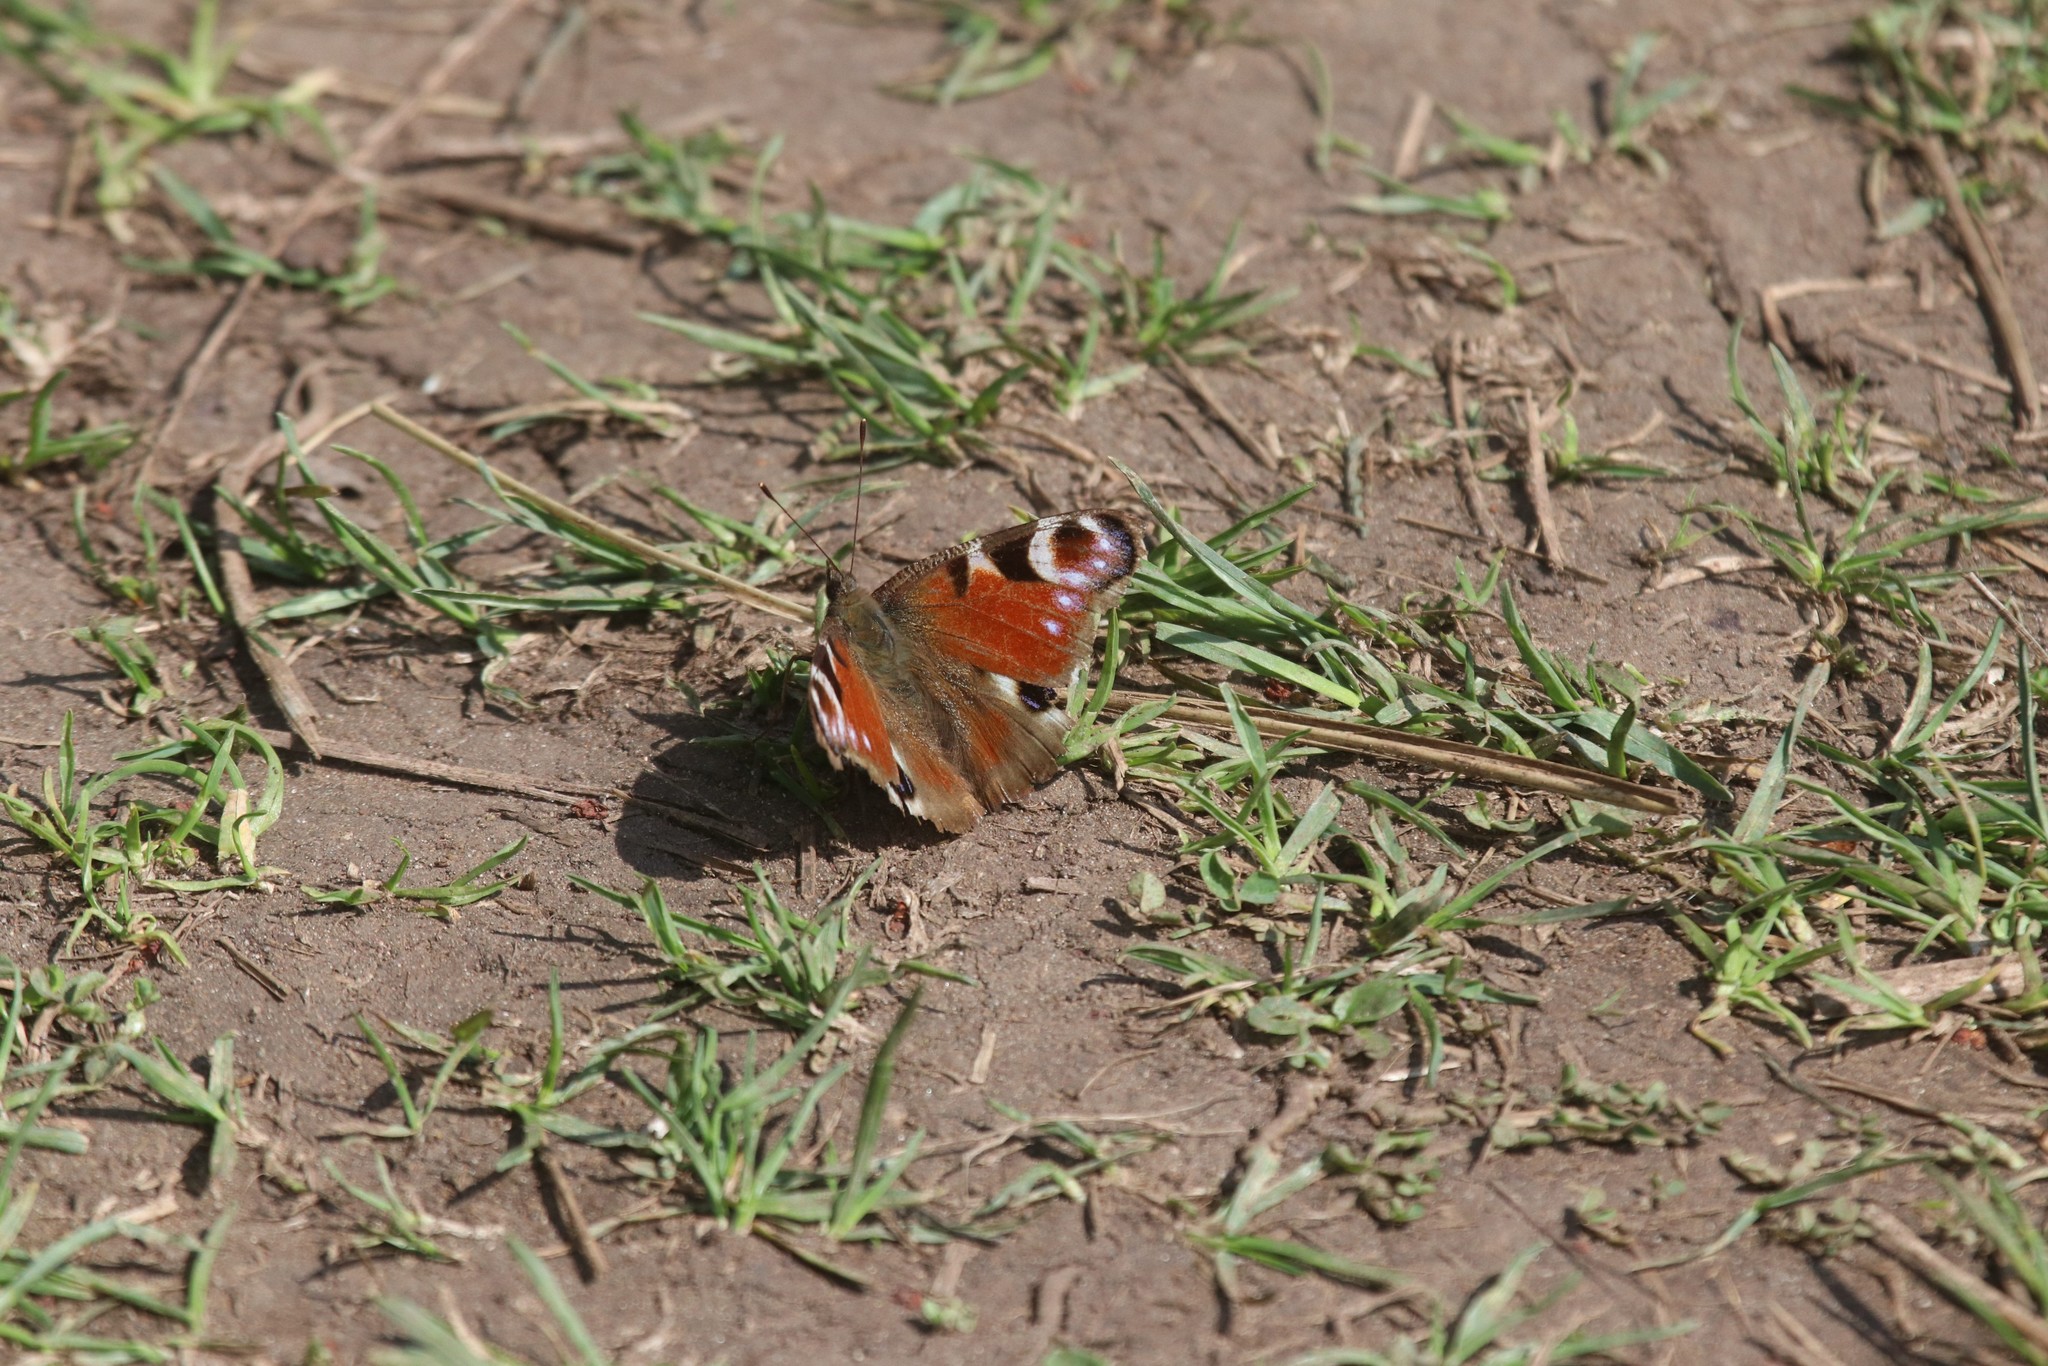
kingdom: Animalia
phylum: Arthropoda
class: Insecta
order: Lepidoptera
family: Nymphalidae
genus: Aglais
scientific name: Aglais io
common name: Peacock
